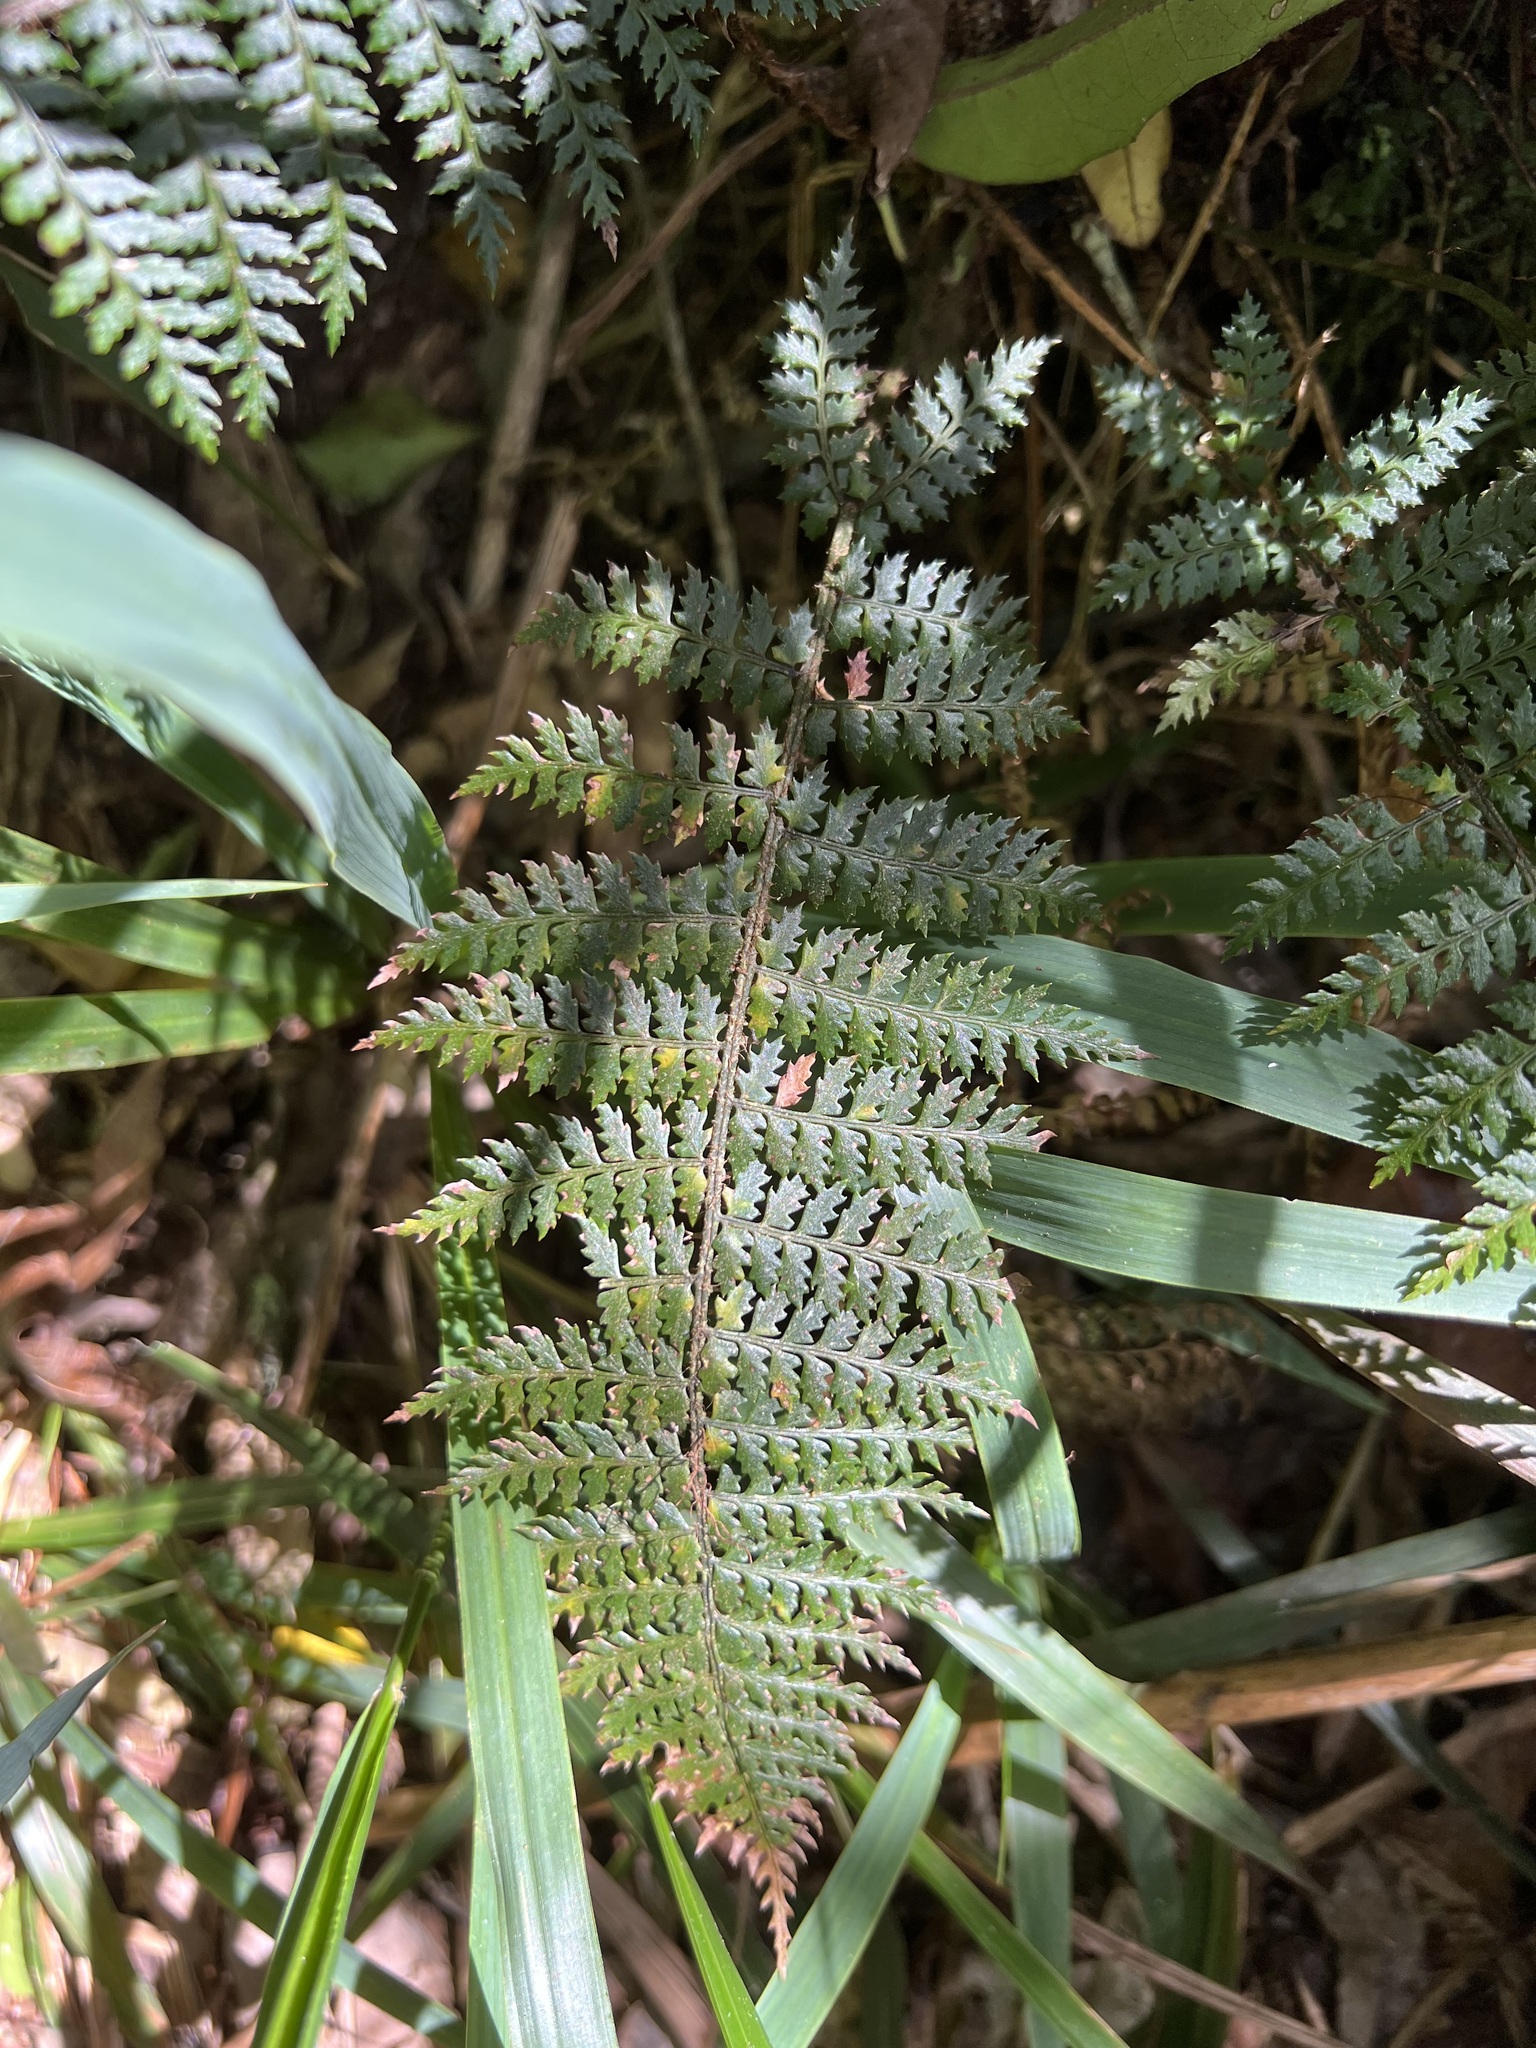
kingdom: Plantae
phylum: Tracheophyta
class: Polypodiopsida
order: Polypodiales
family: Dryopteridaceae
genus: Polystichum
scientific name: Polystichum silvaticum
